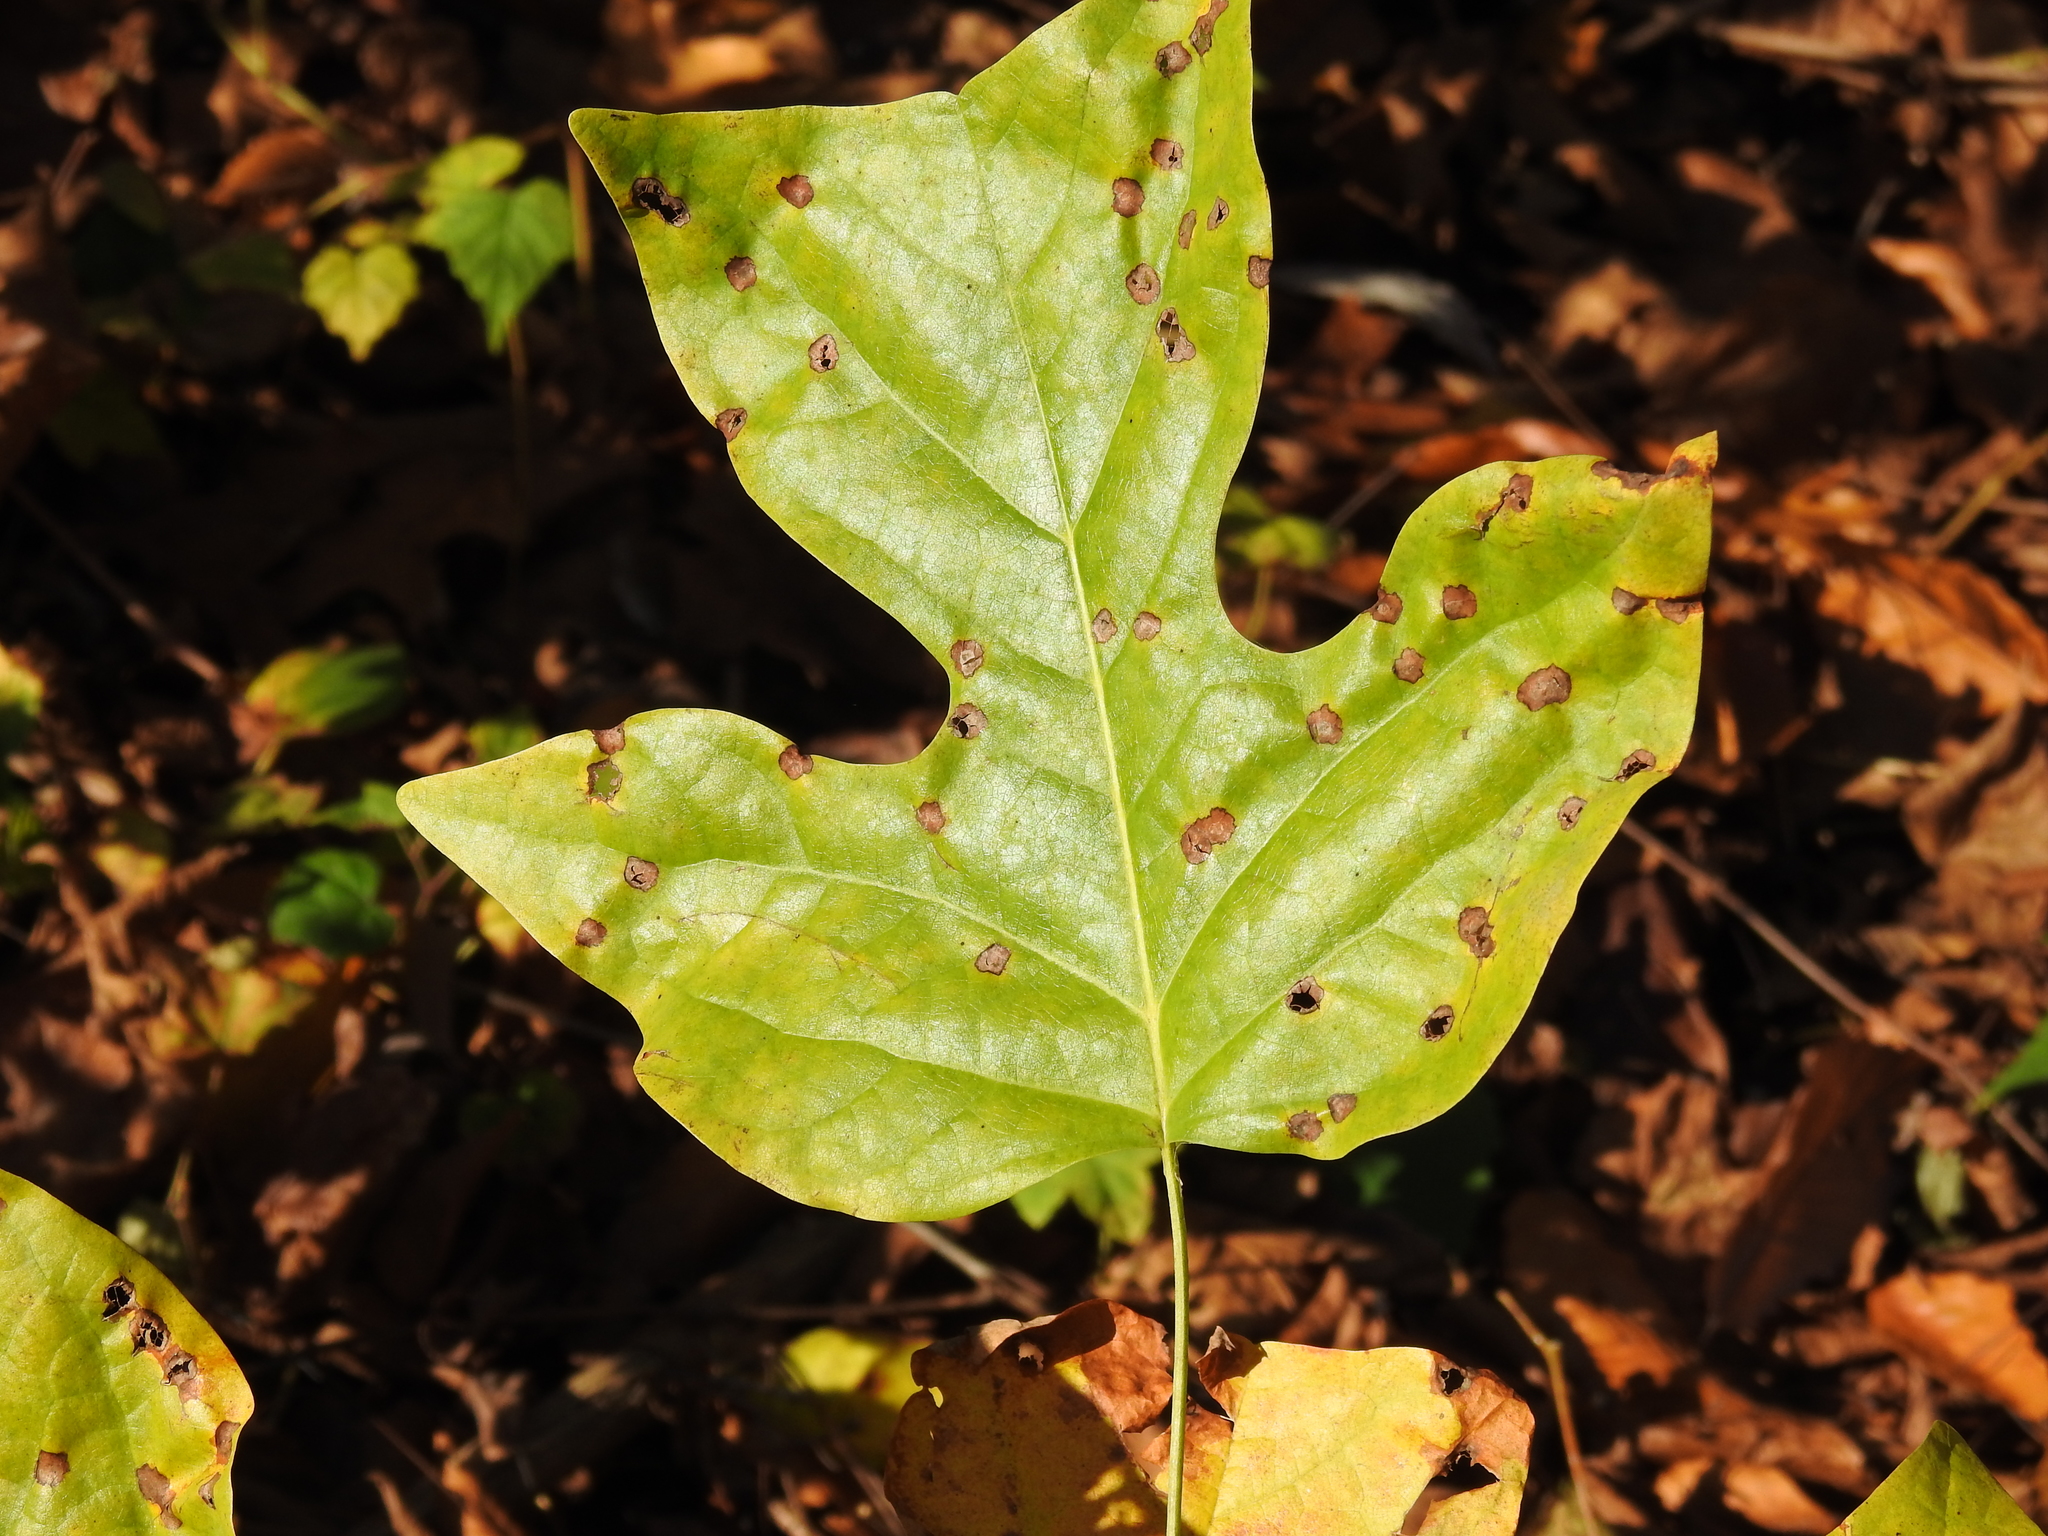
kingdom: Plantae
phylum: Tracheophyta
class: Magnoliopsida
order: Magnoliales
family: Magnoliaceae
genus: Liriodendron
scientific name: Liriodendron tulipifera
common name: Tulip tree
